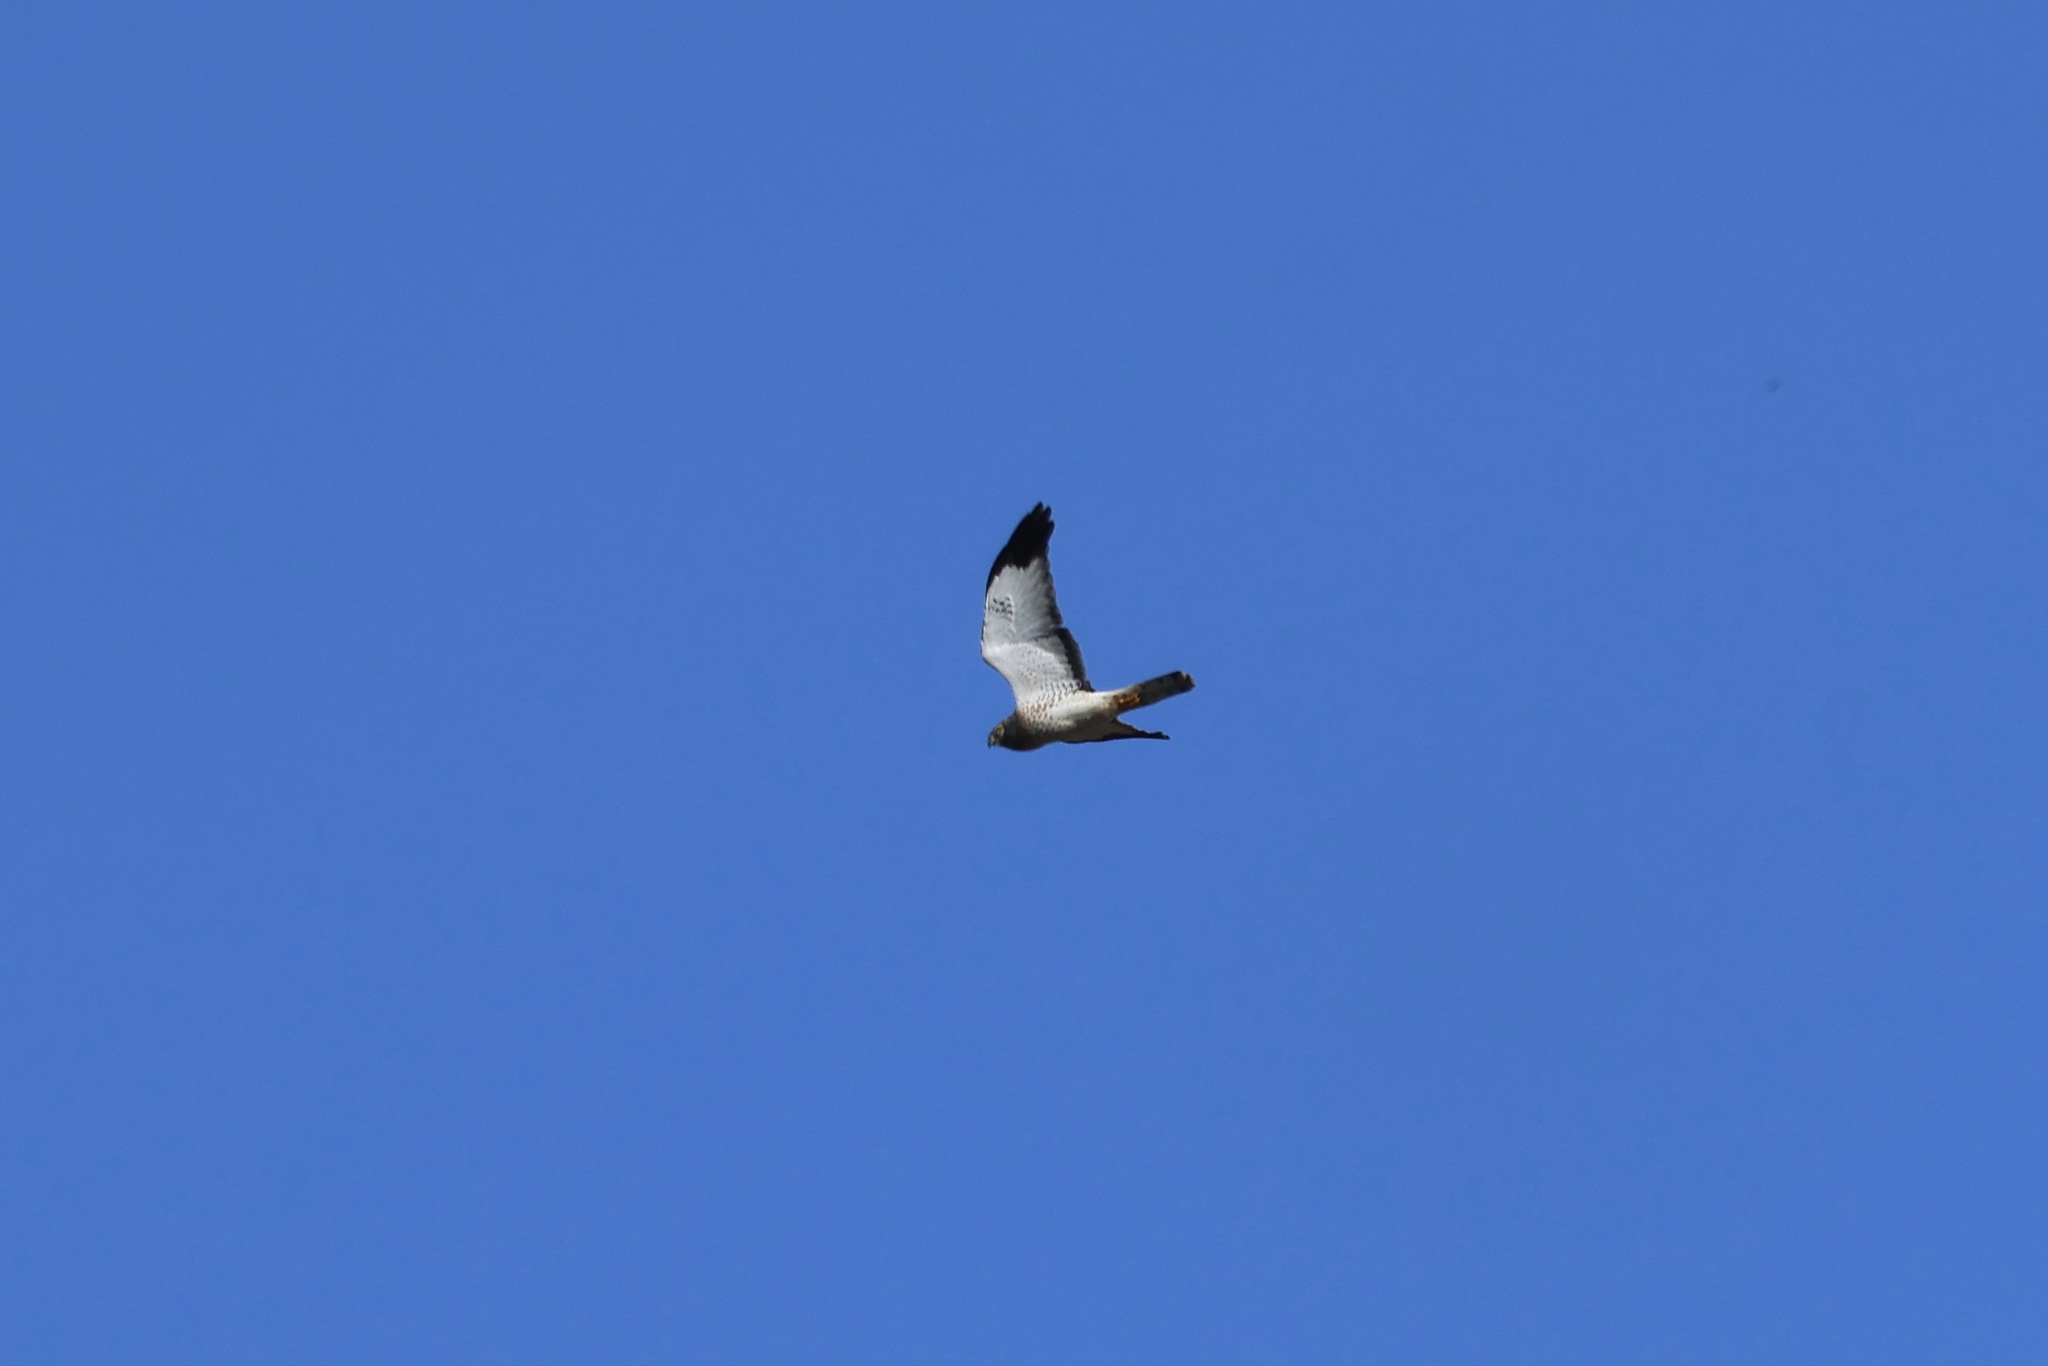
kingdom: Animalia
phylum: Chordata
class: Aves
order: Accipitriformes
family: Accipitridae
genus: Circus
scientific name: Circus cyaneus
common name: Hen harrier
